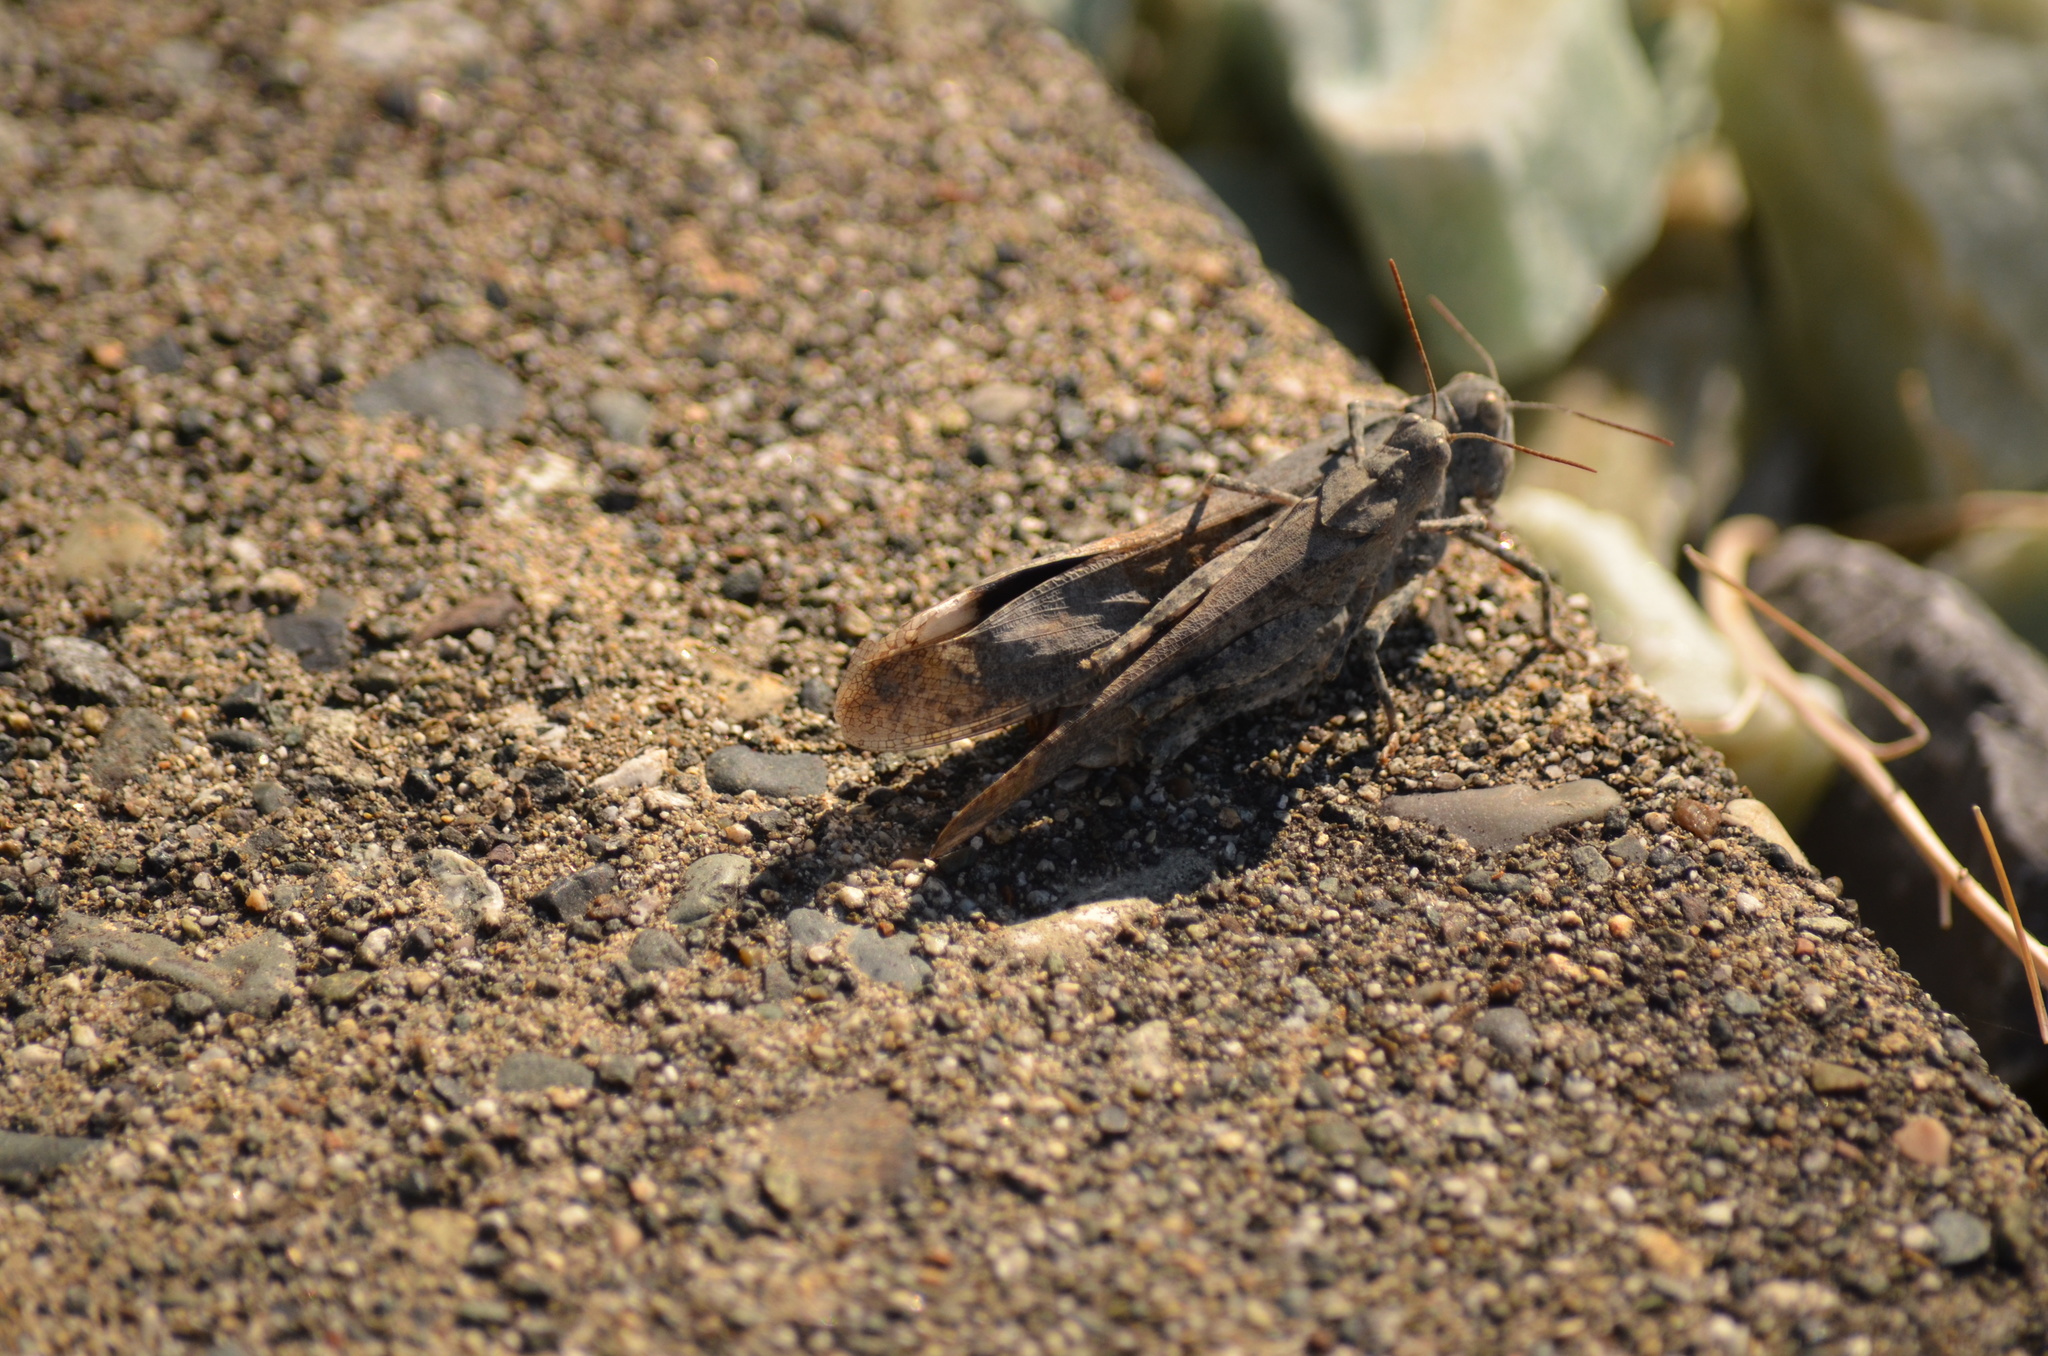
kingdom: Animalia
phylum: Arthropoda
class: Insecta
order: Orthoptera
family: Acrididae
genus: Dissosteira
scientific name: Dissosteira carolina
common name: Carolina grasshopper
